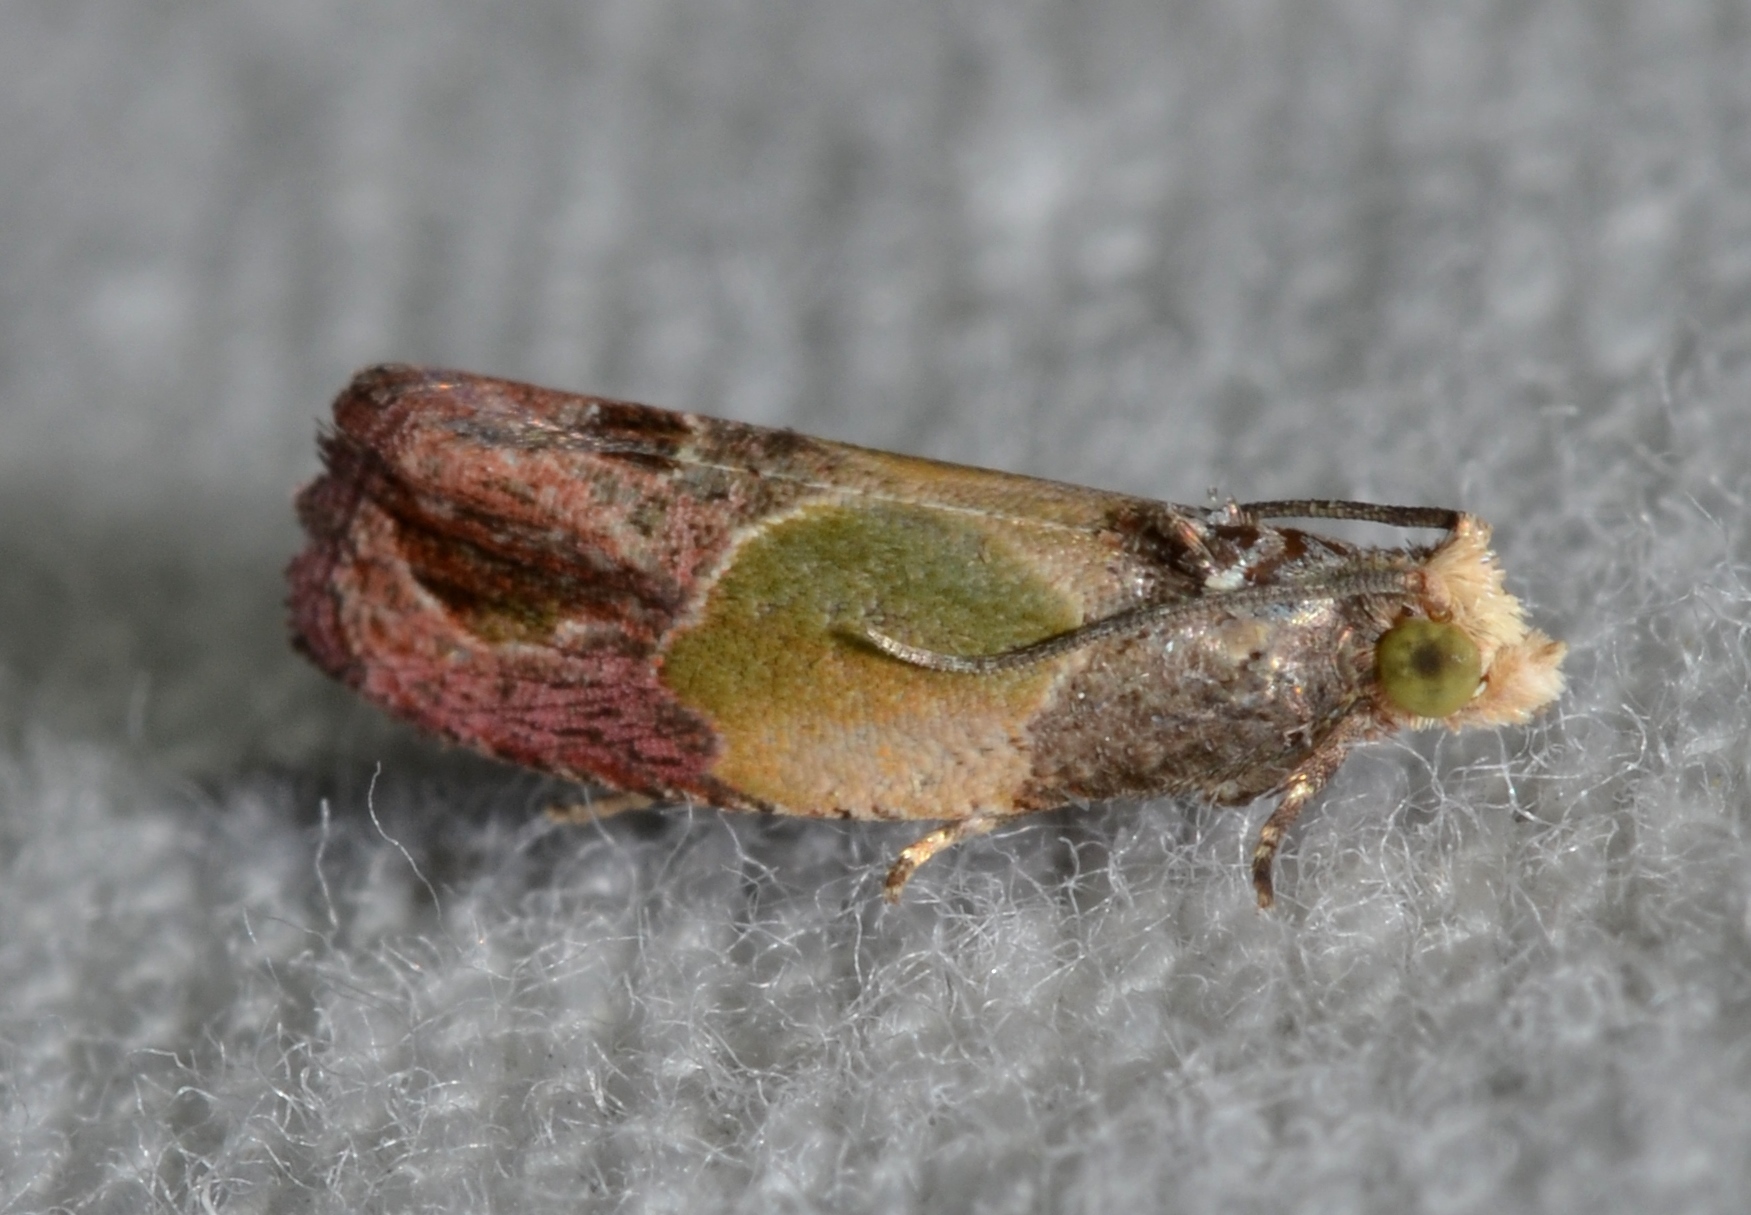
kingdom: Animalia
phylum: Arthropoda
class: Insecta
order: Lepidoptera
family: Tortricidae
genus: Eumarozia
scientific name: Eumarozia malachitana
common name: Sculptured moth
